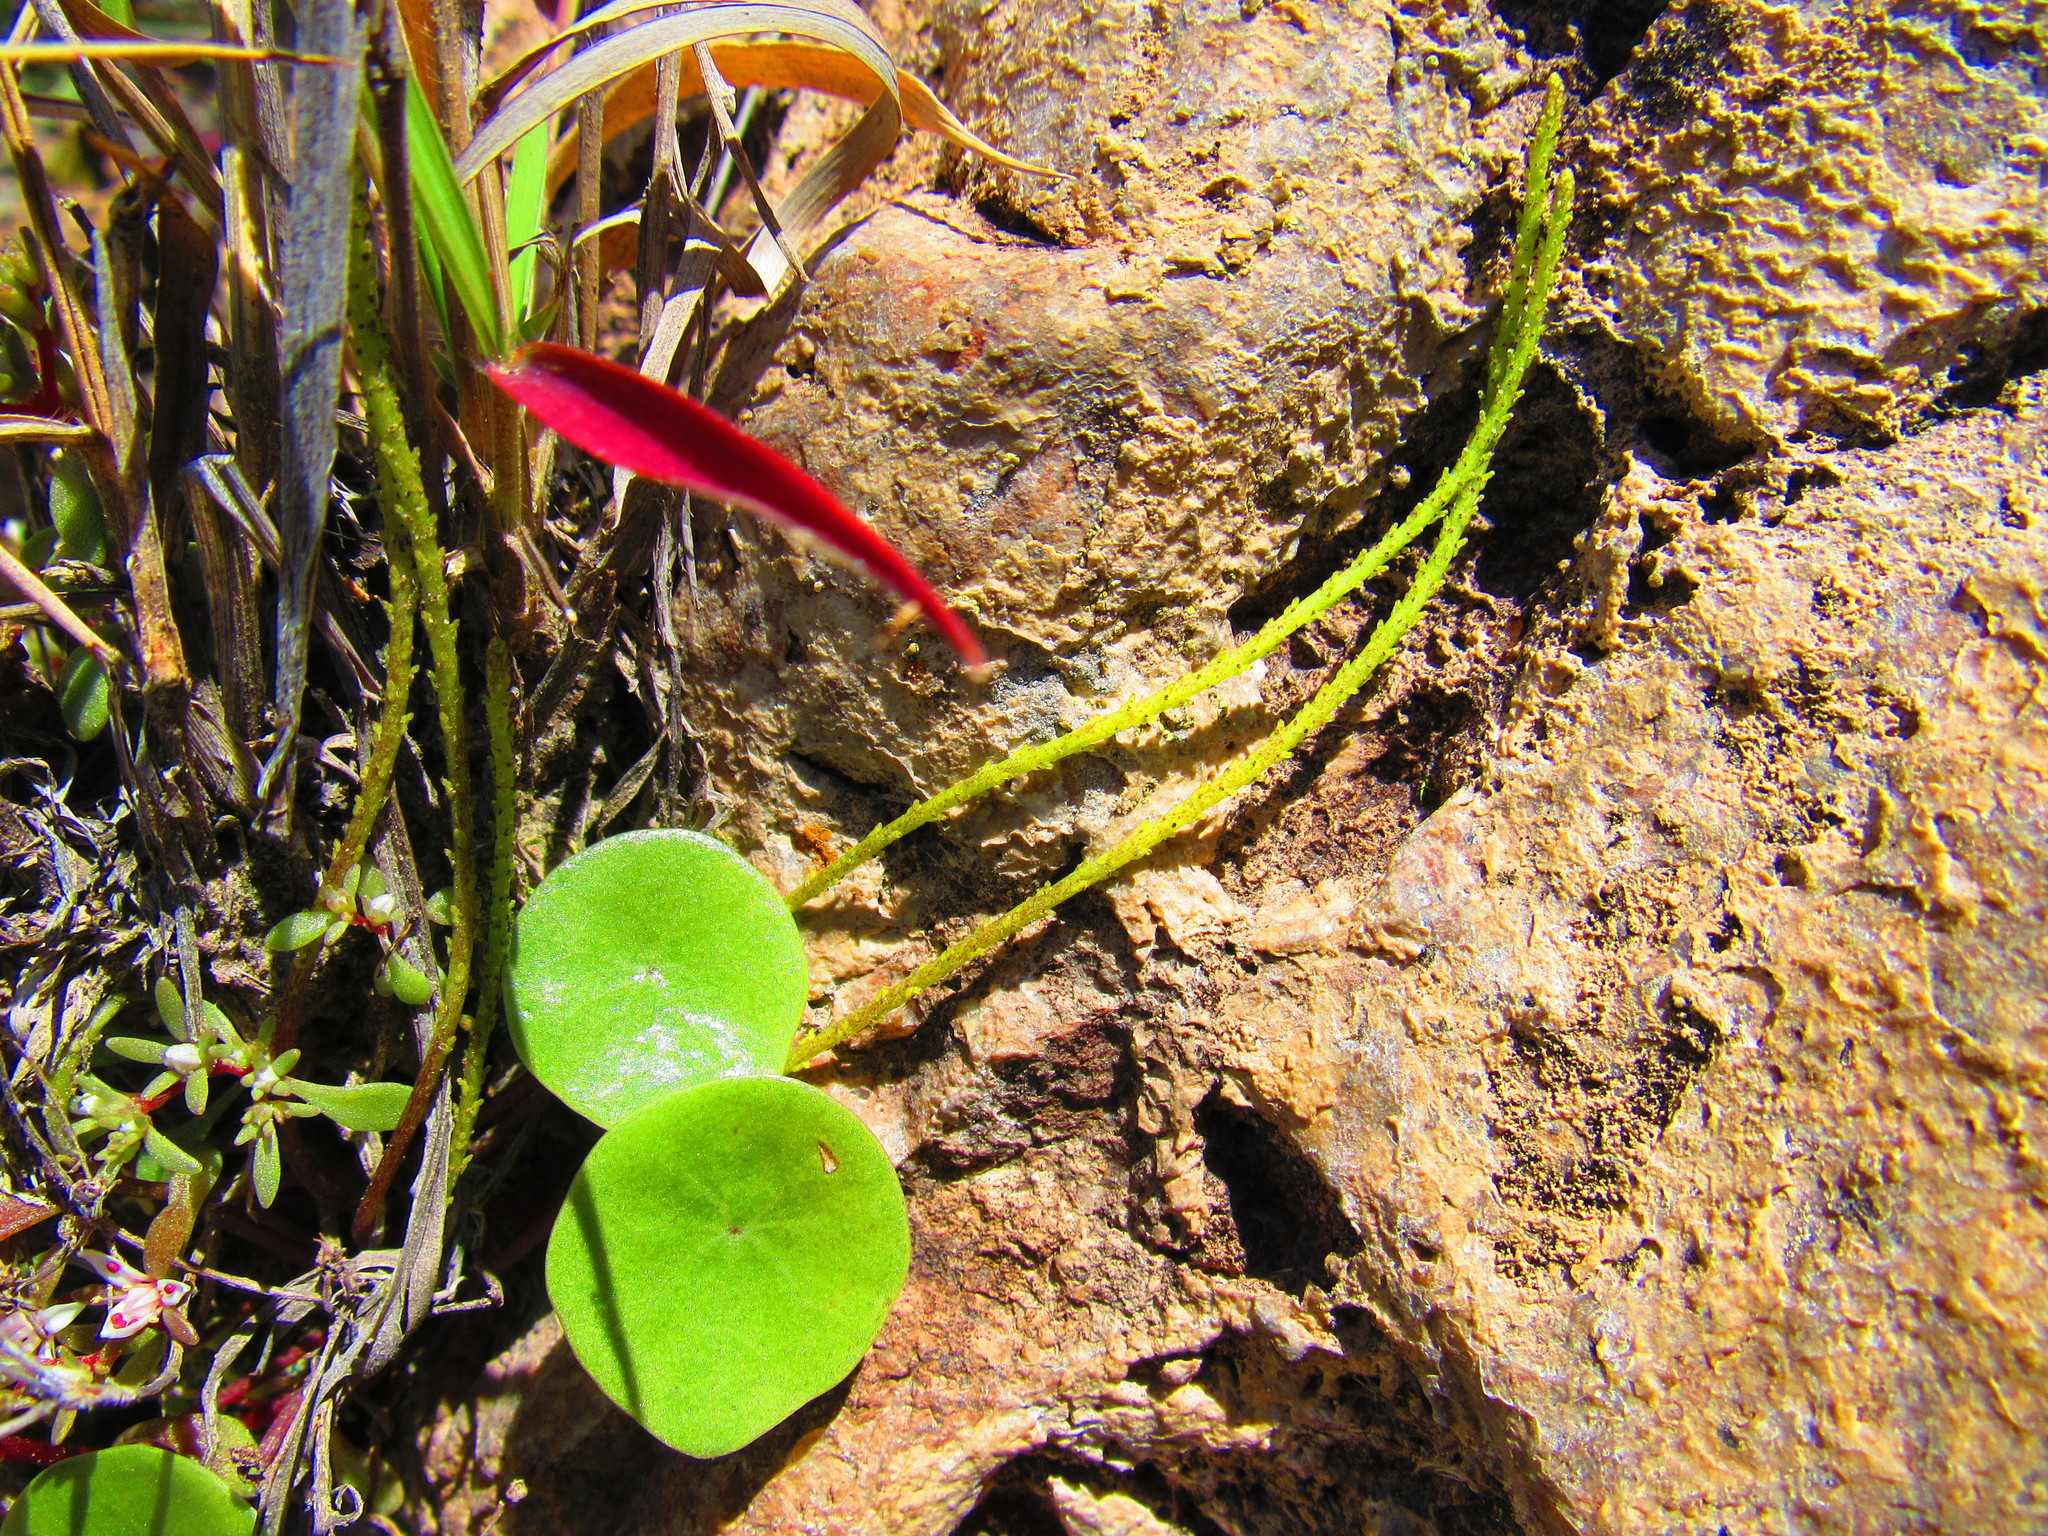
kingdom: Plantae
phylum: Tracheophyta
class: Magnoliopsida
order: Piperales
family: Piperaceae
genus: Peperomia
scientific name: Peperomia monticola
